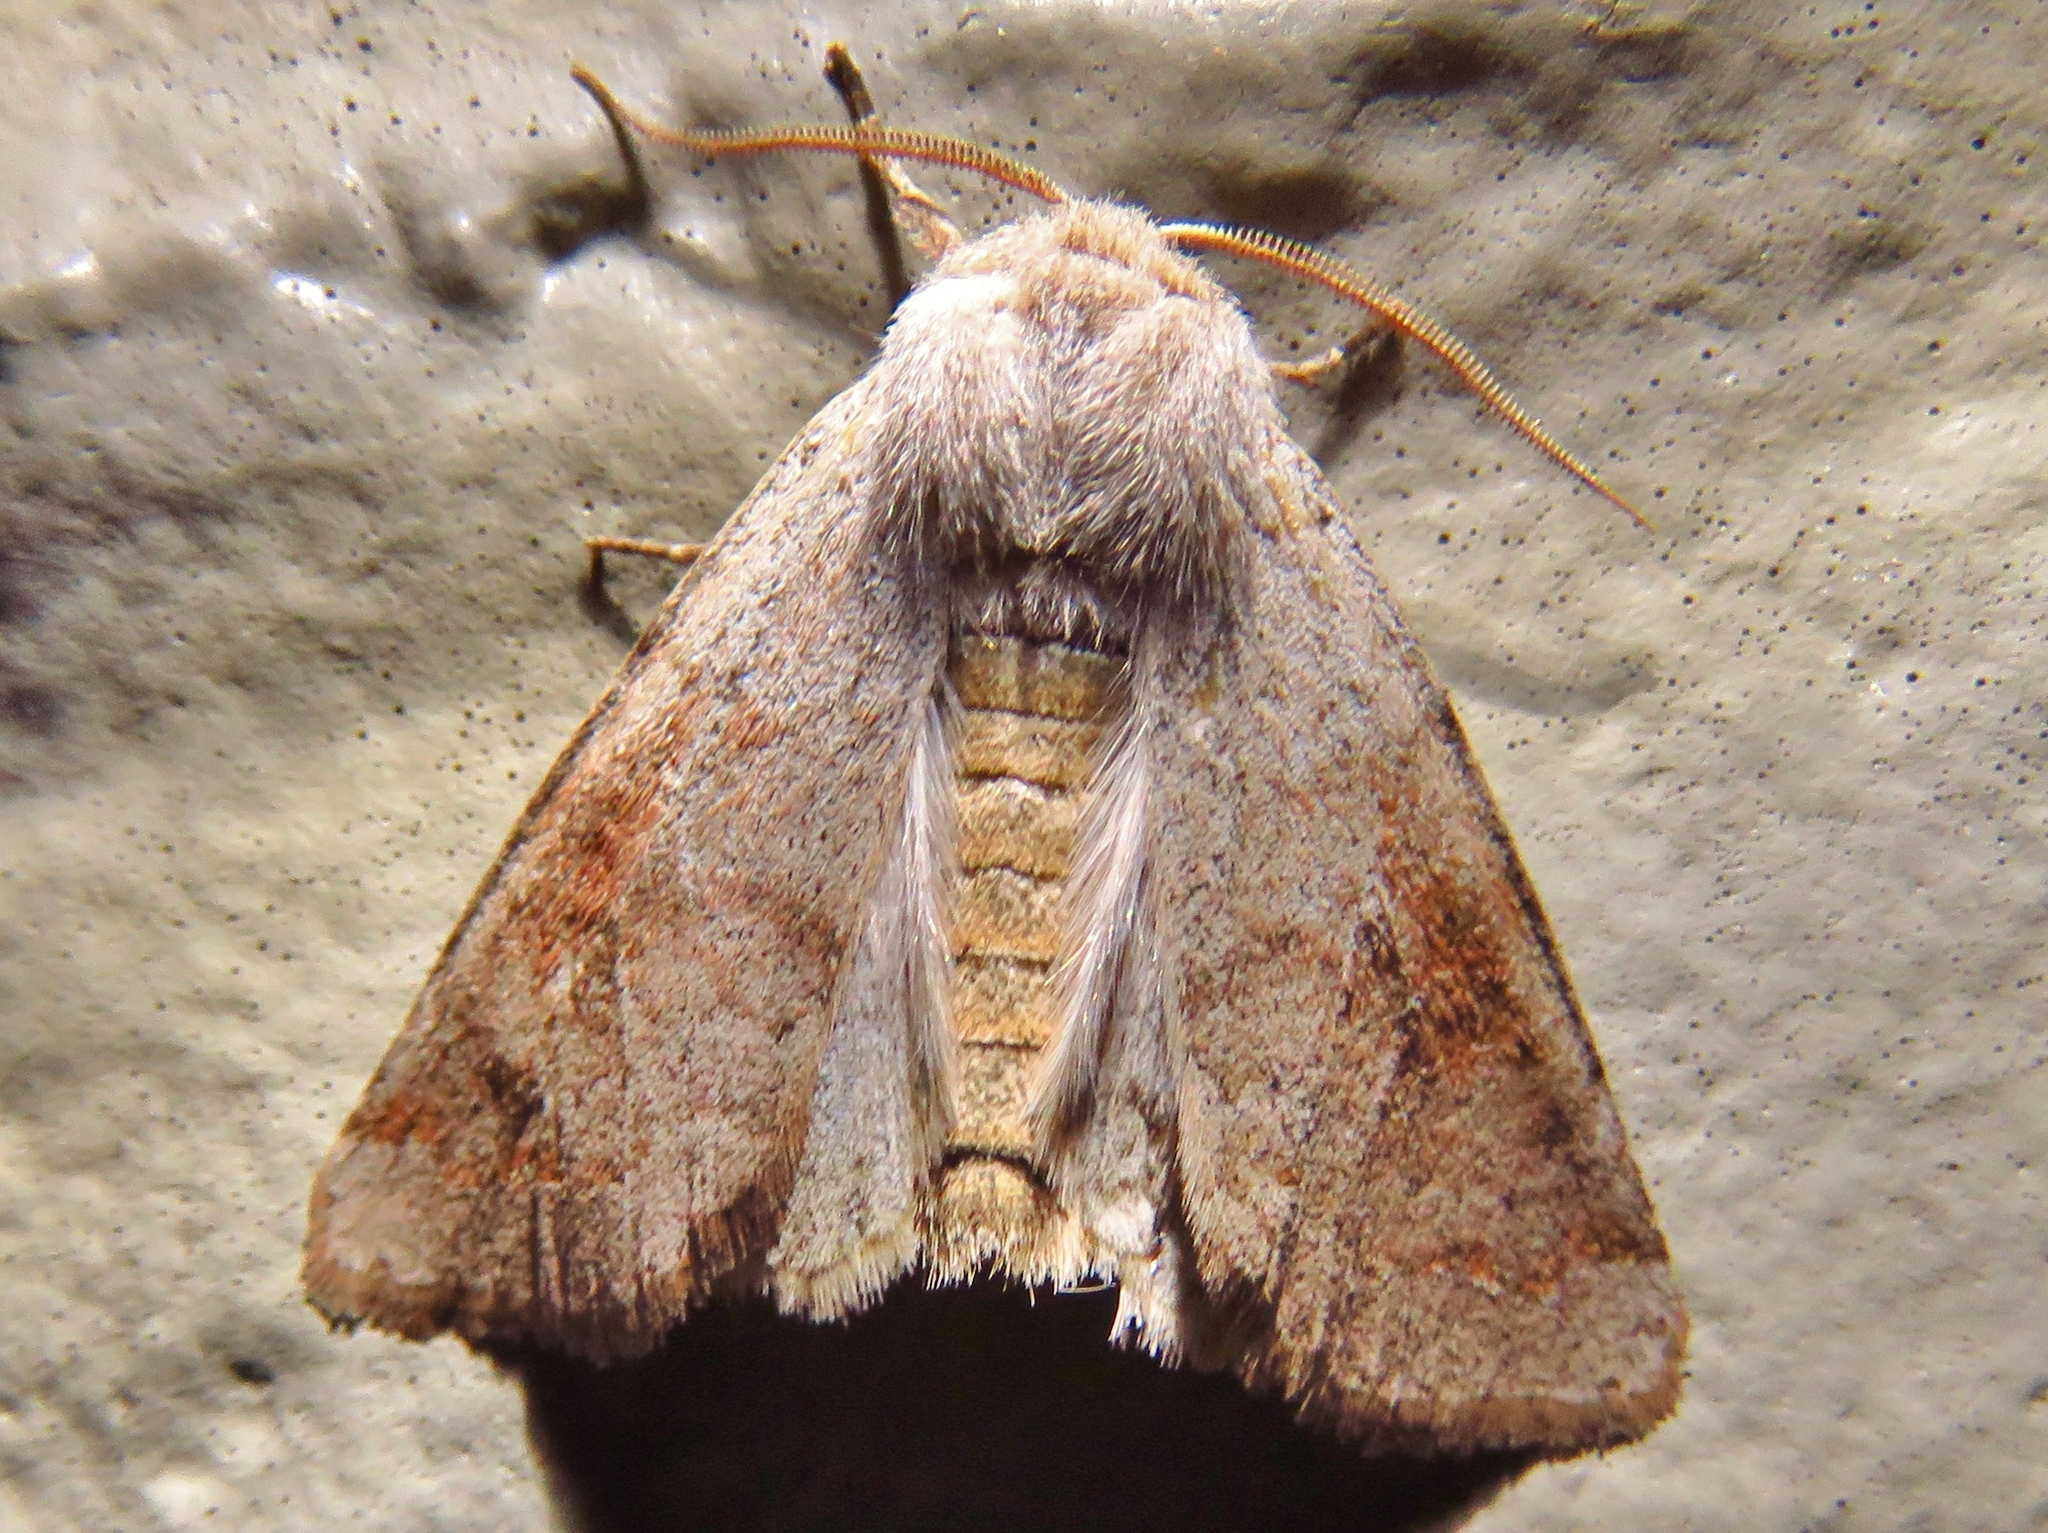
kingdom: Animalia
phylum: Arthropoda
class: Insecta
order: Lepidoptera
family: Noctuidae
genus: Orthosia
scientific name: Orthosia alurina
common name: Gray quaker
